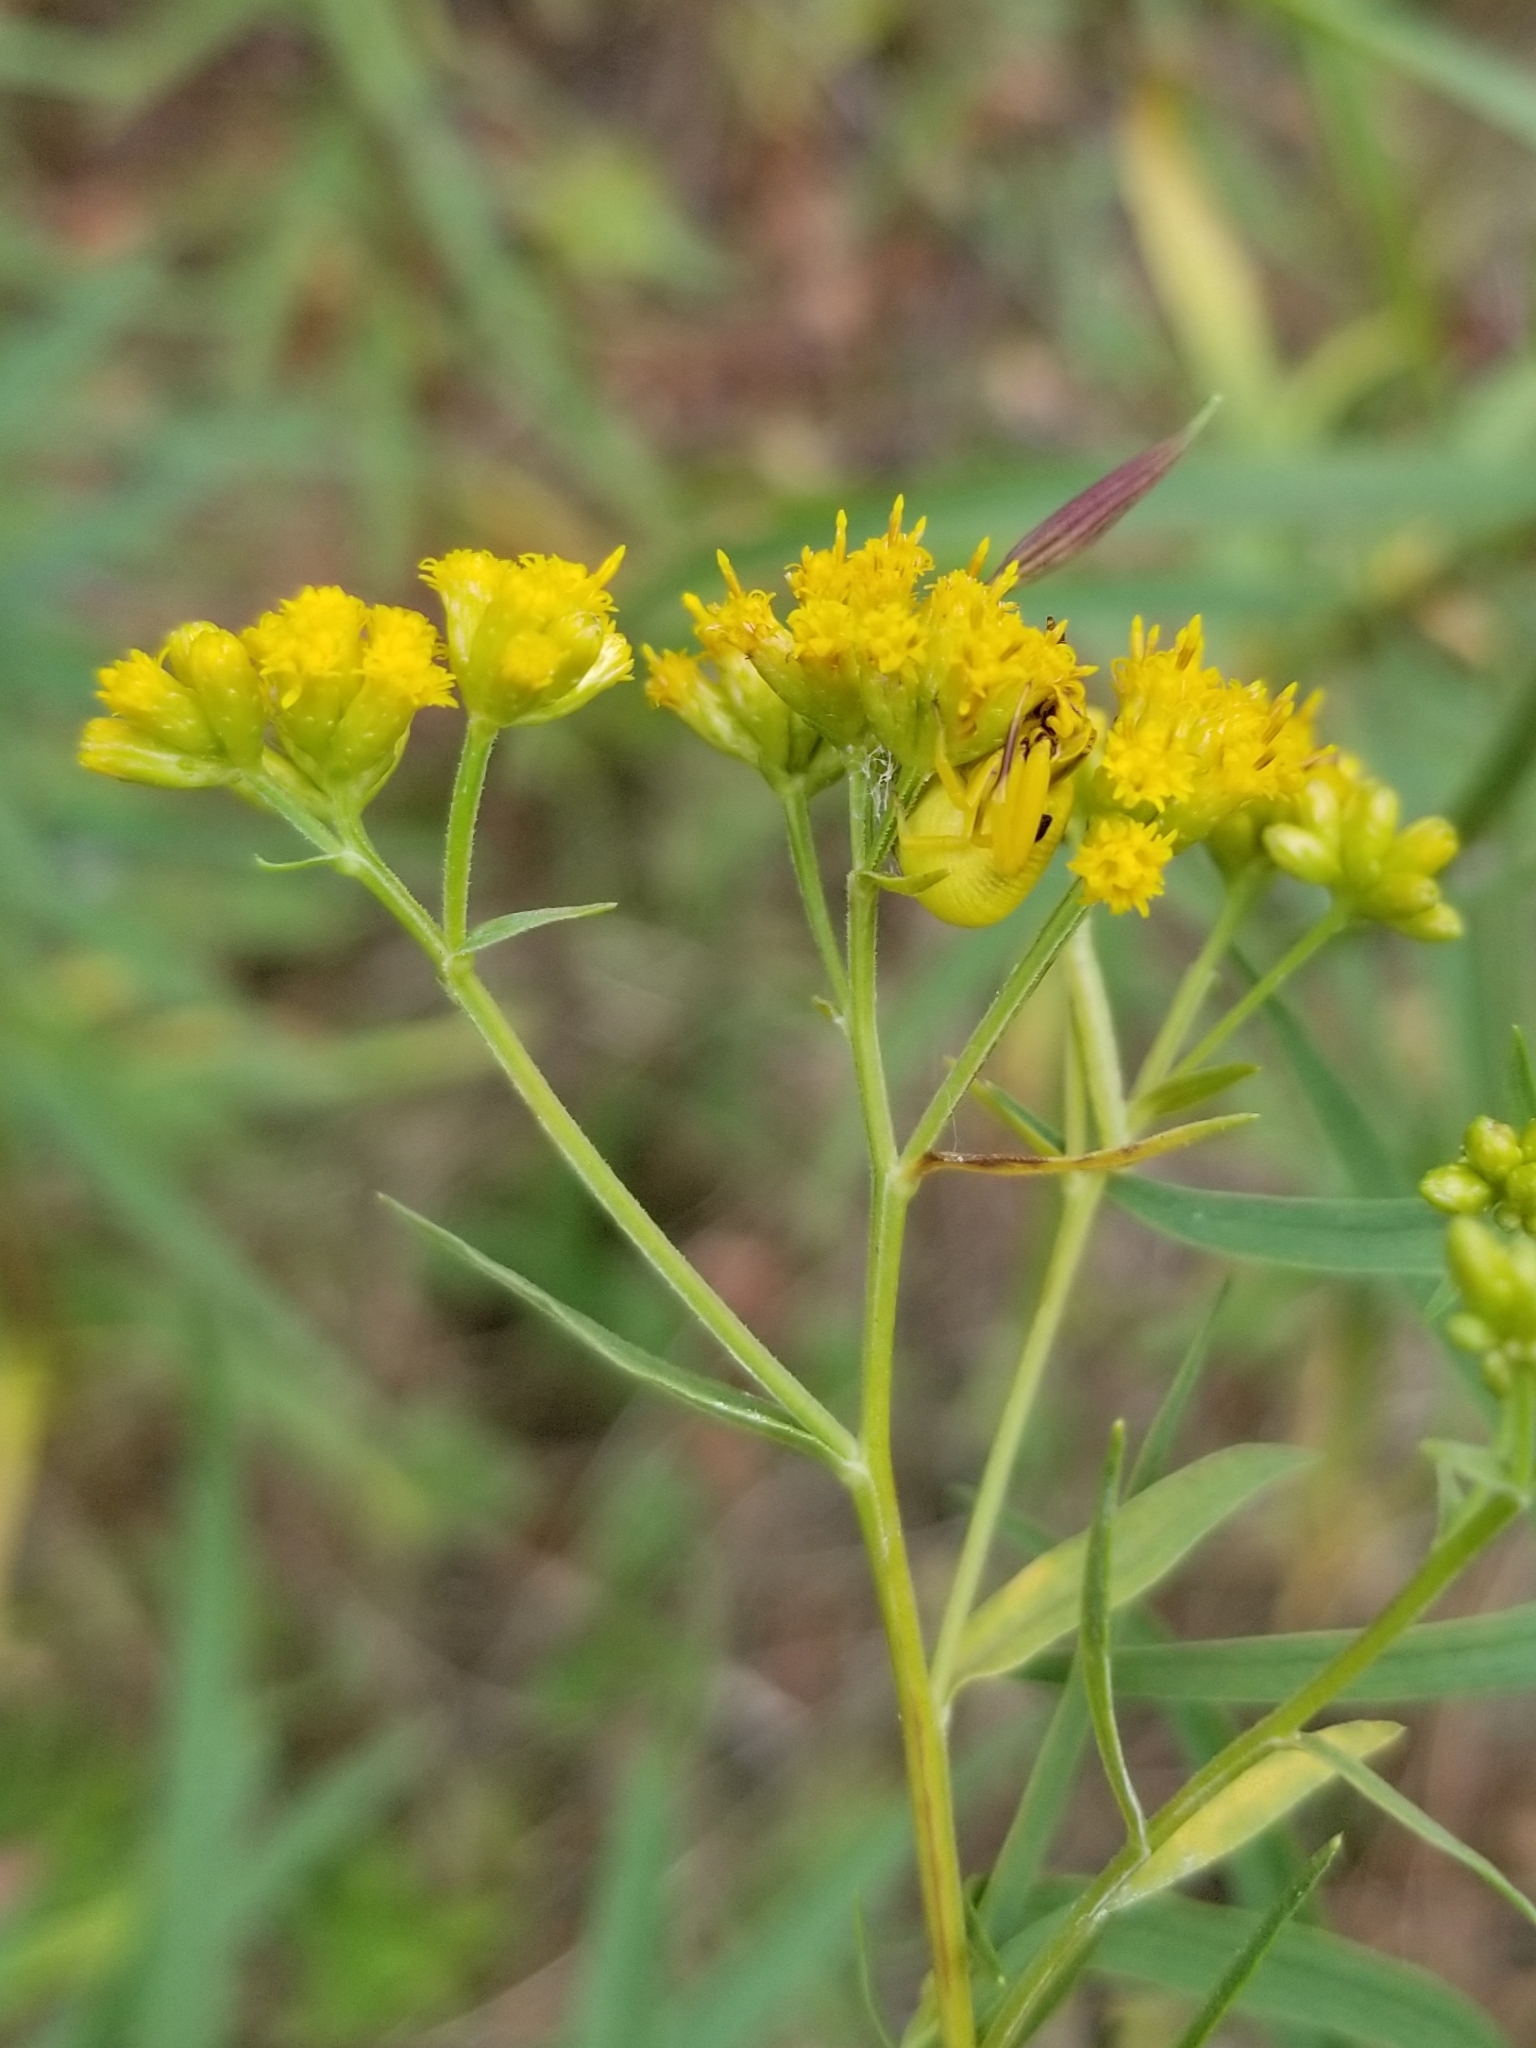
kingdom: Animalia
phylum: Arthropoda
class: Arachnida
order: Araneae
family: Thomisidae
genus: Misumenoides
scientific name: Misumenoides formosipes
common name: White-banded crab spider
